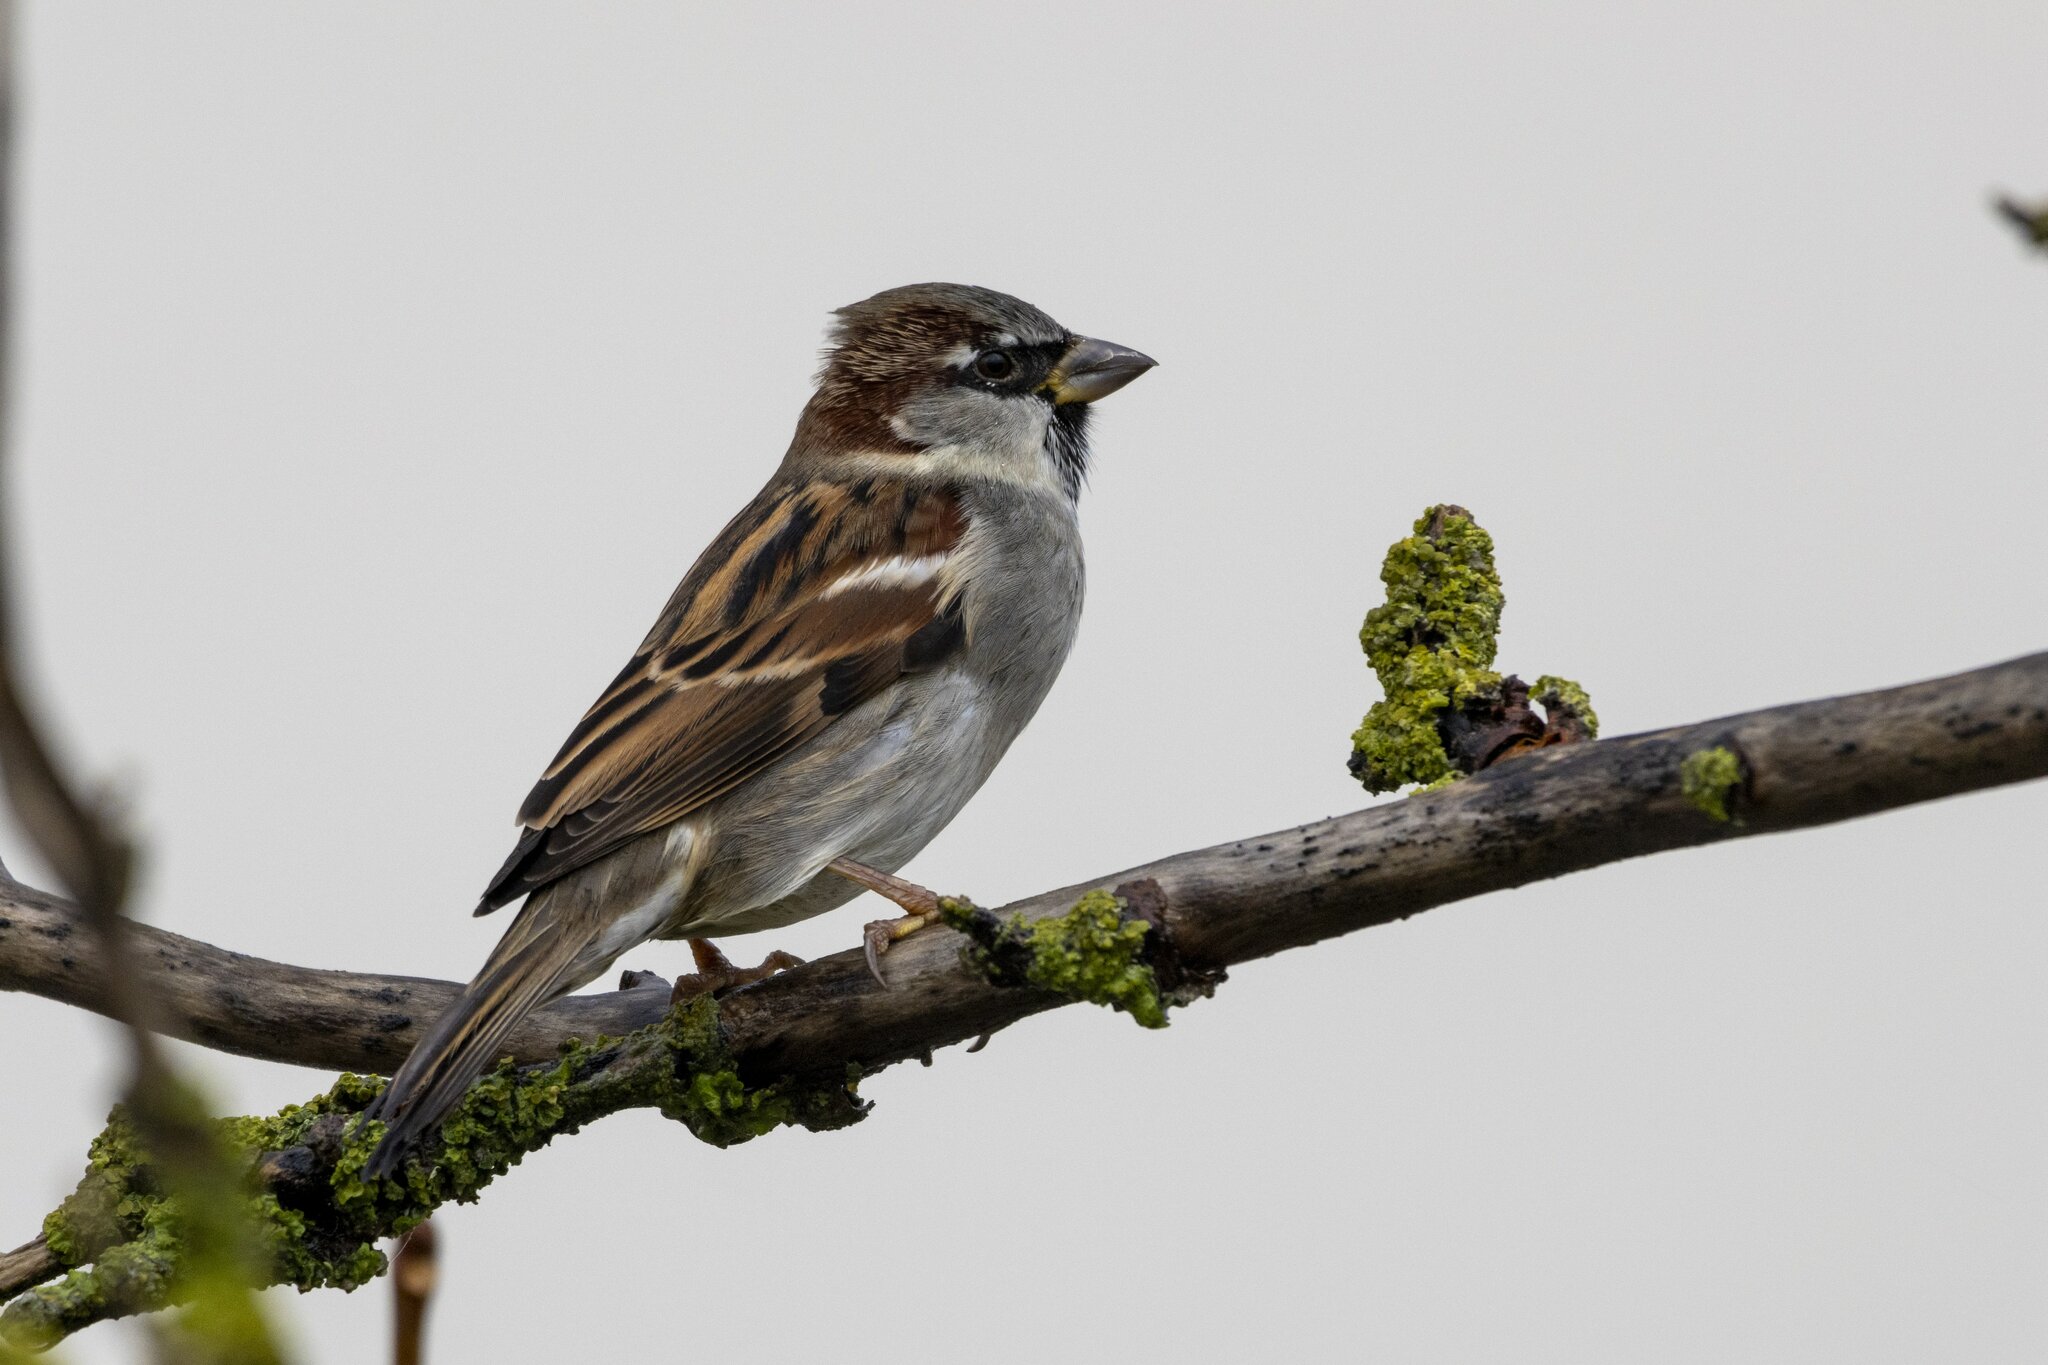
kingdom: Animalia
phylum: Chordata
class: Aves
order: Passeriformes
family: Passeridae
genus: Passer
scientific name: Passer domesticus
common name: House sparrow
